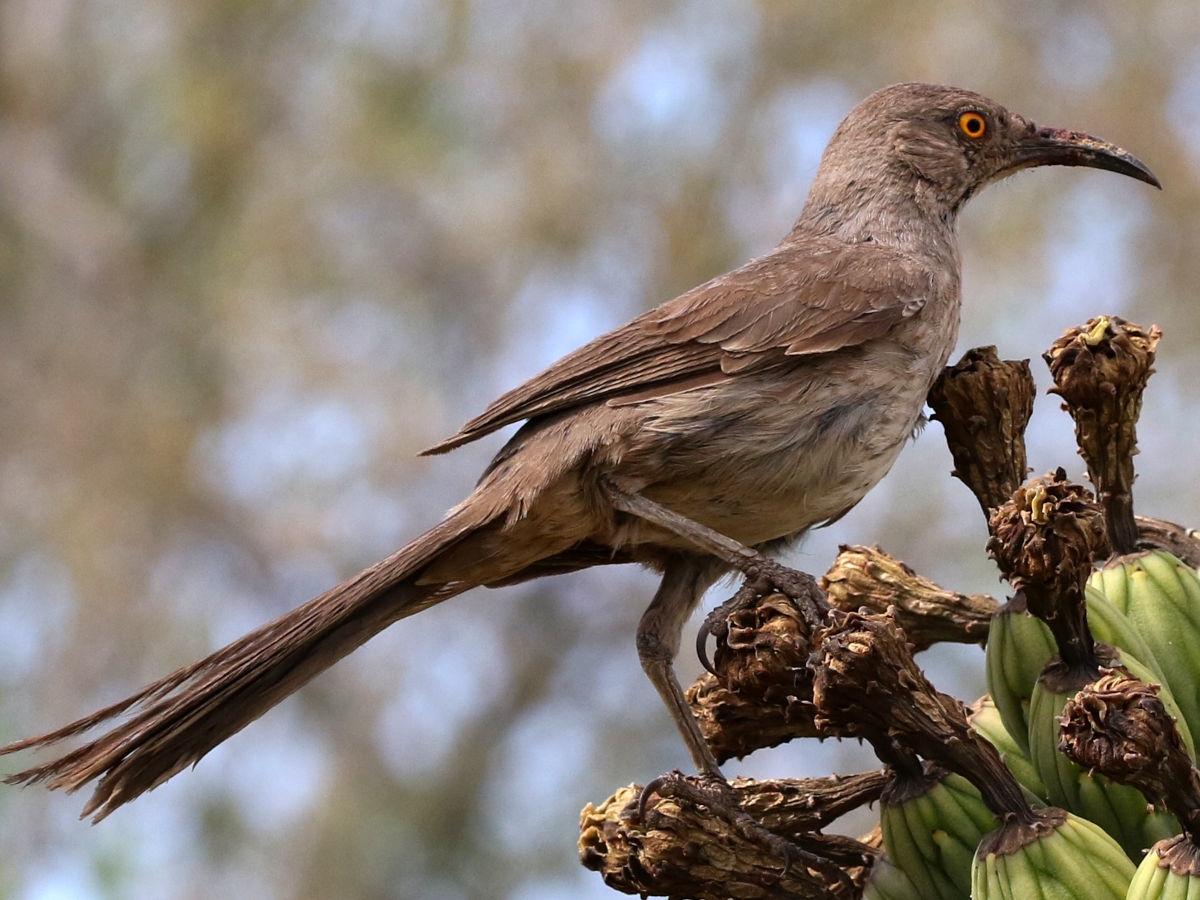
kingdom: Animalia
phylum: Chordata
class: Aves
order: Passeriformes
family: Mimidae
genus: Toxostoma
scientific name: Toxostoma curvirostre
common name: Curve-billed thrasher
